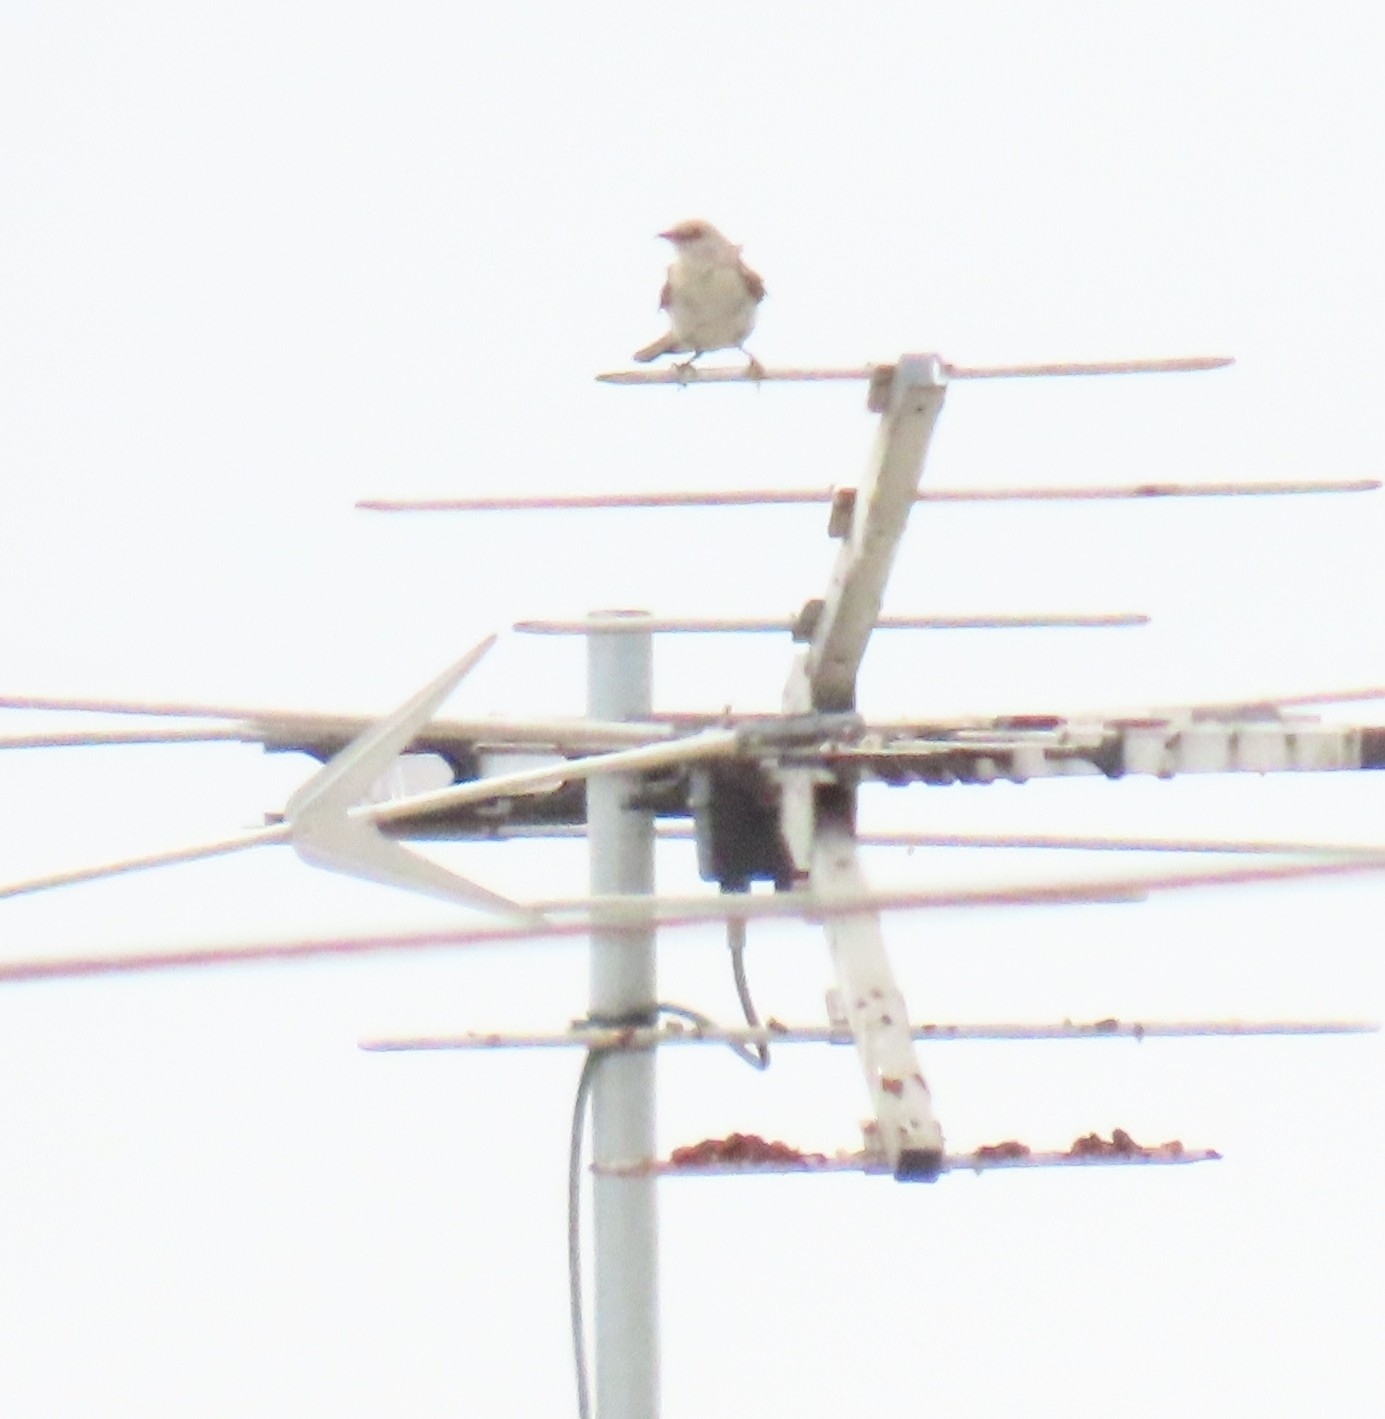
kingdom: Animalia
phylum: Chordata
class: Aves
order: Passeriformes
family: Mimidae
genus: Mimus
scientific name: Mimus polyglottos
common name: Northern mockingbird
